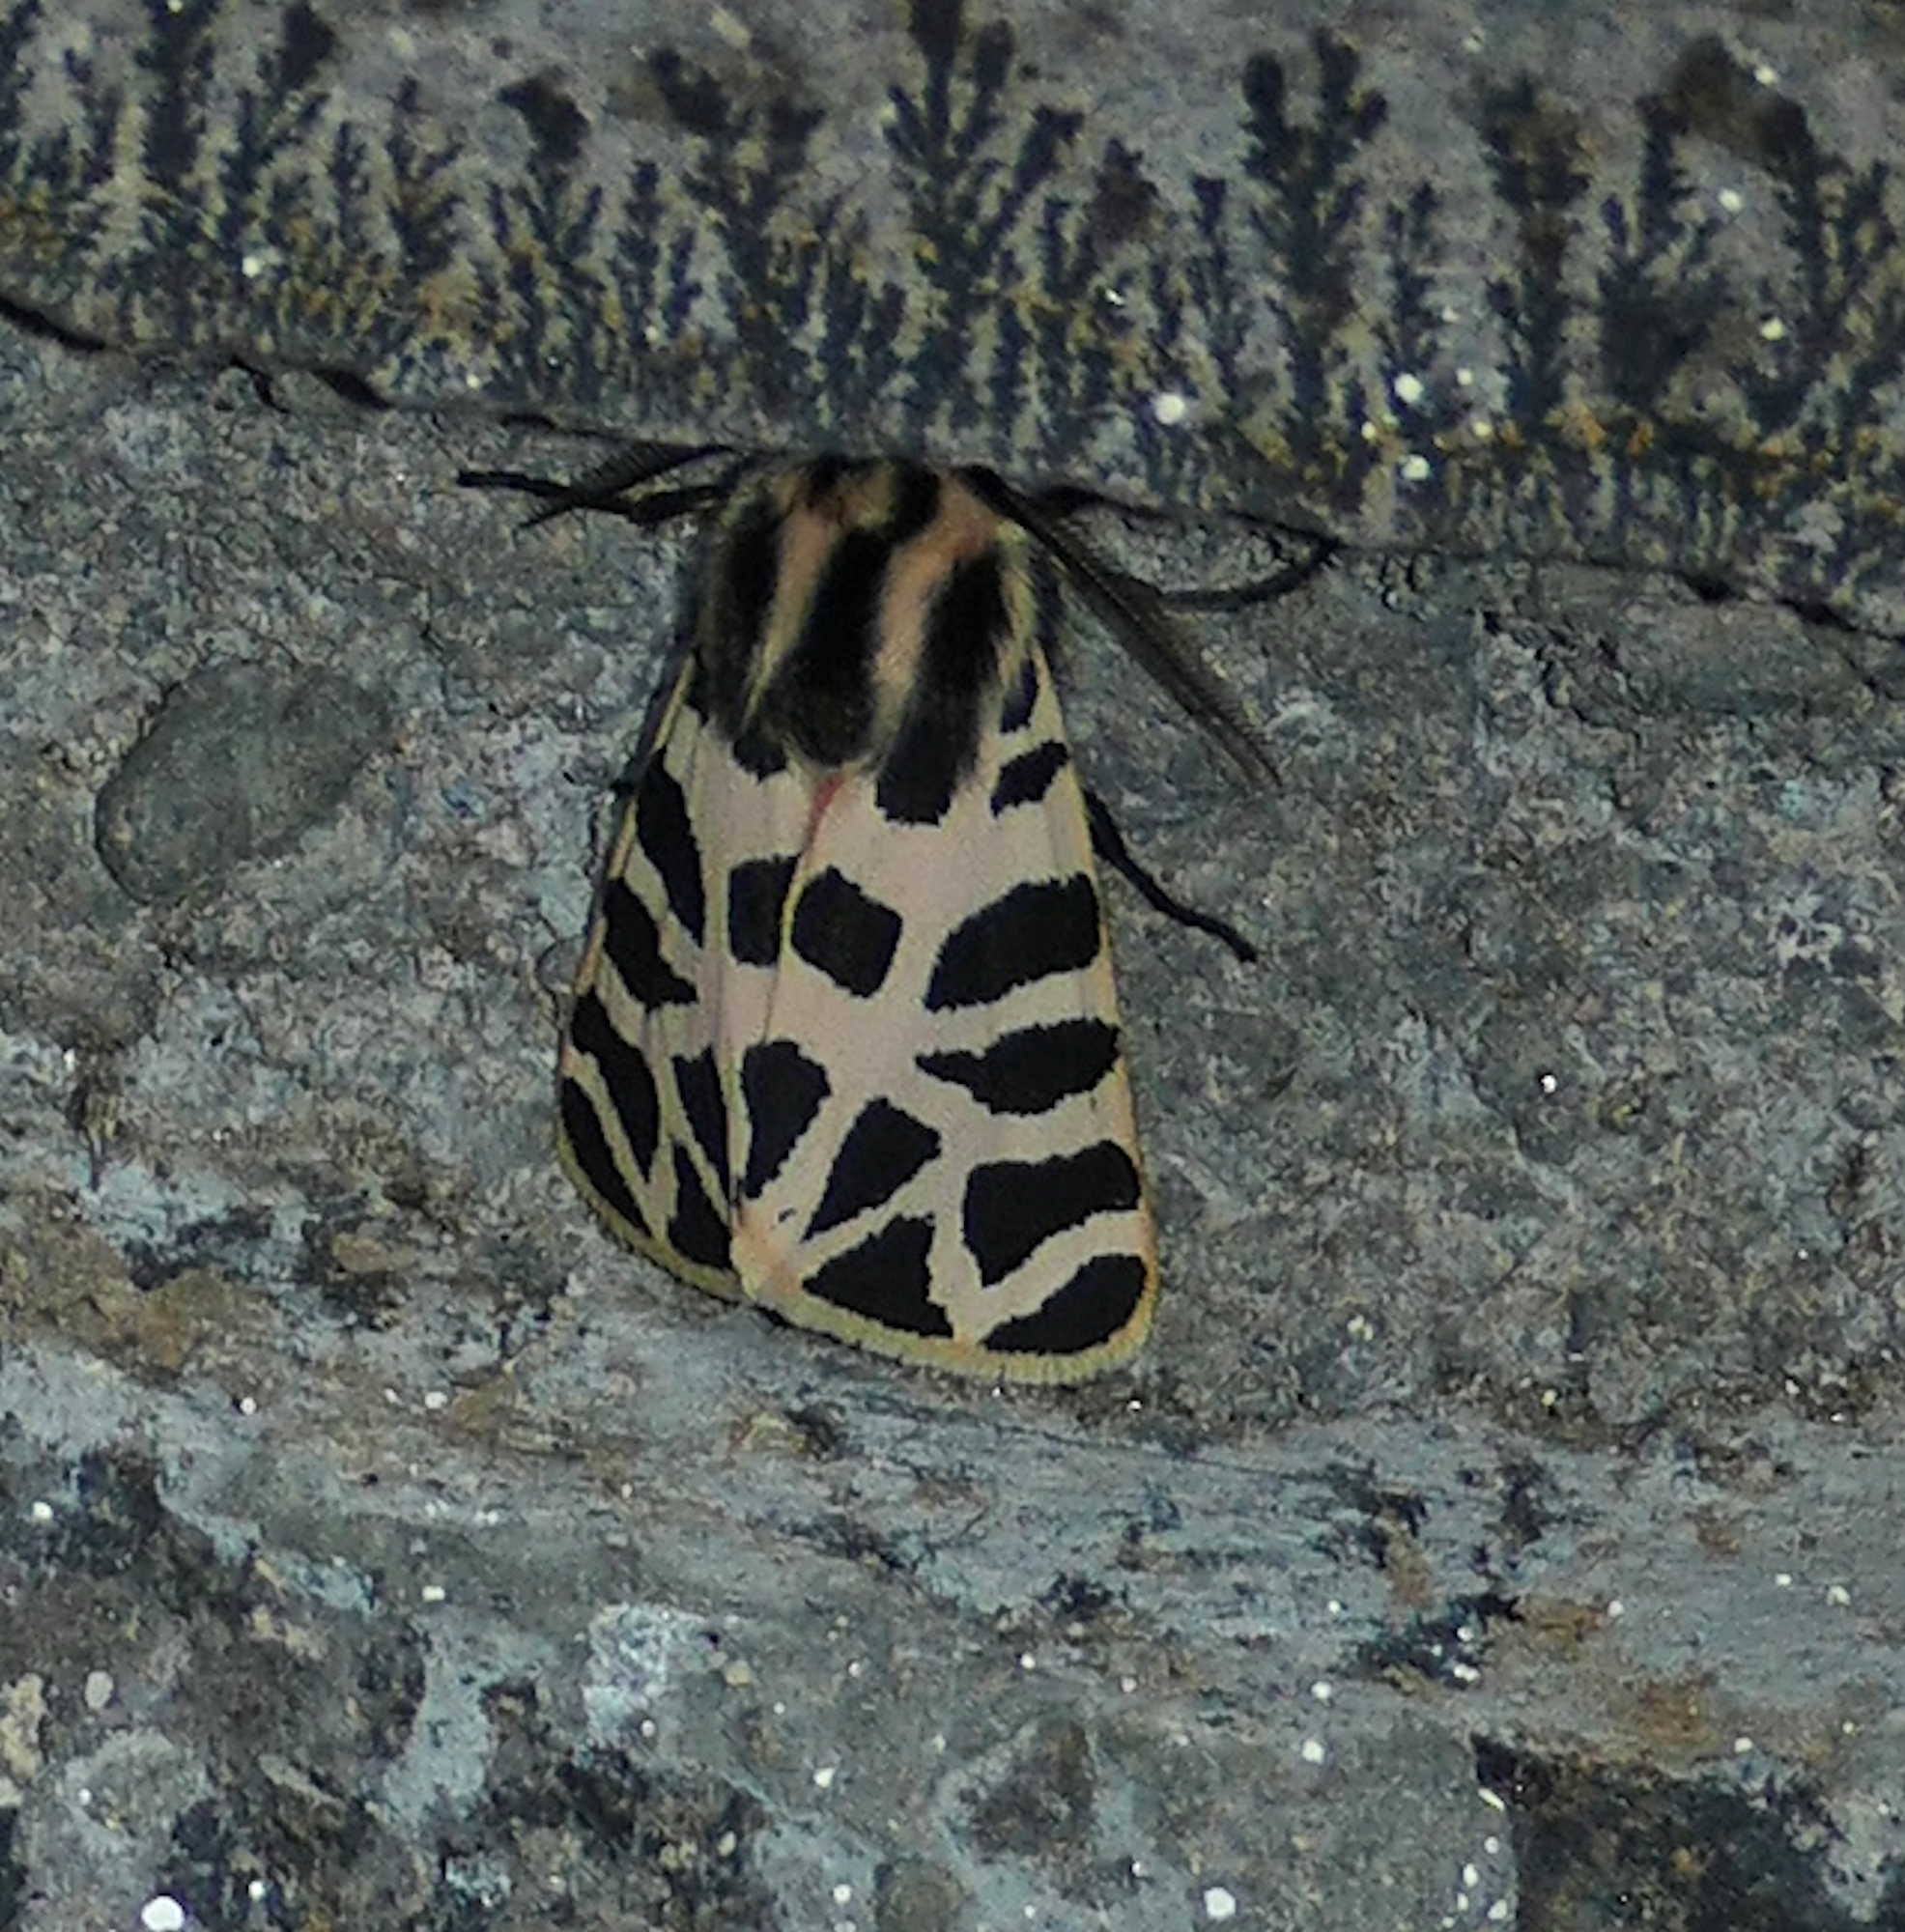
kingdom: Animalia
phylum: Arthropoda
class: Insecta
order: Lepidoptera
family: Erebidae
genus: Apantesis
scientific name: Apantesis incorrupta
